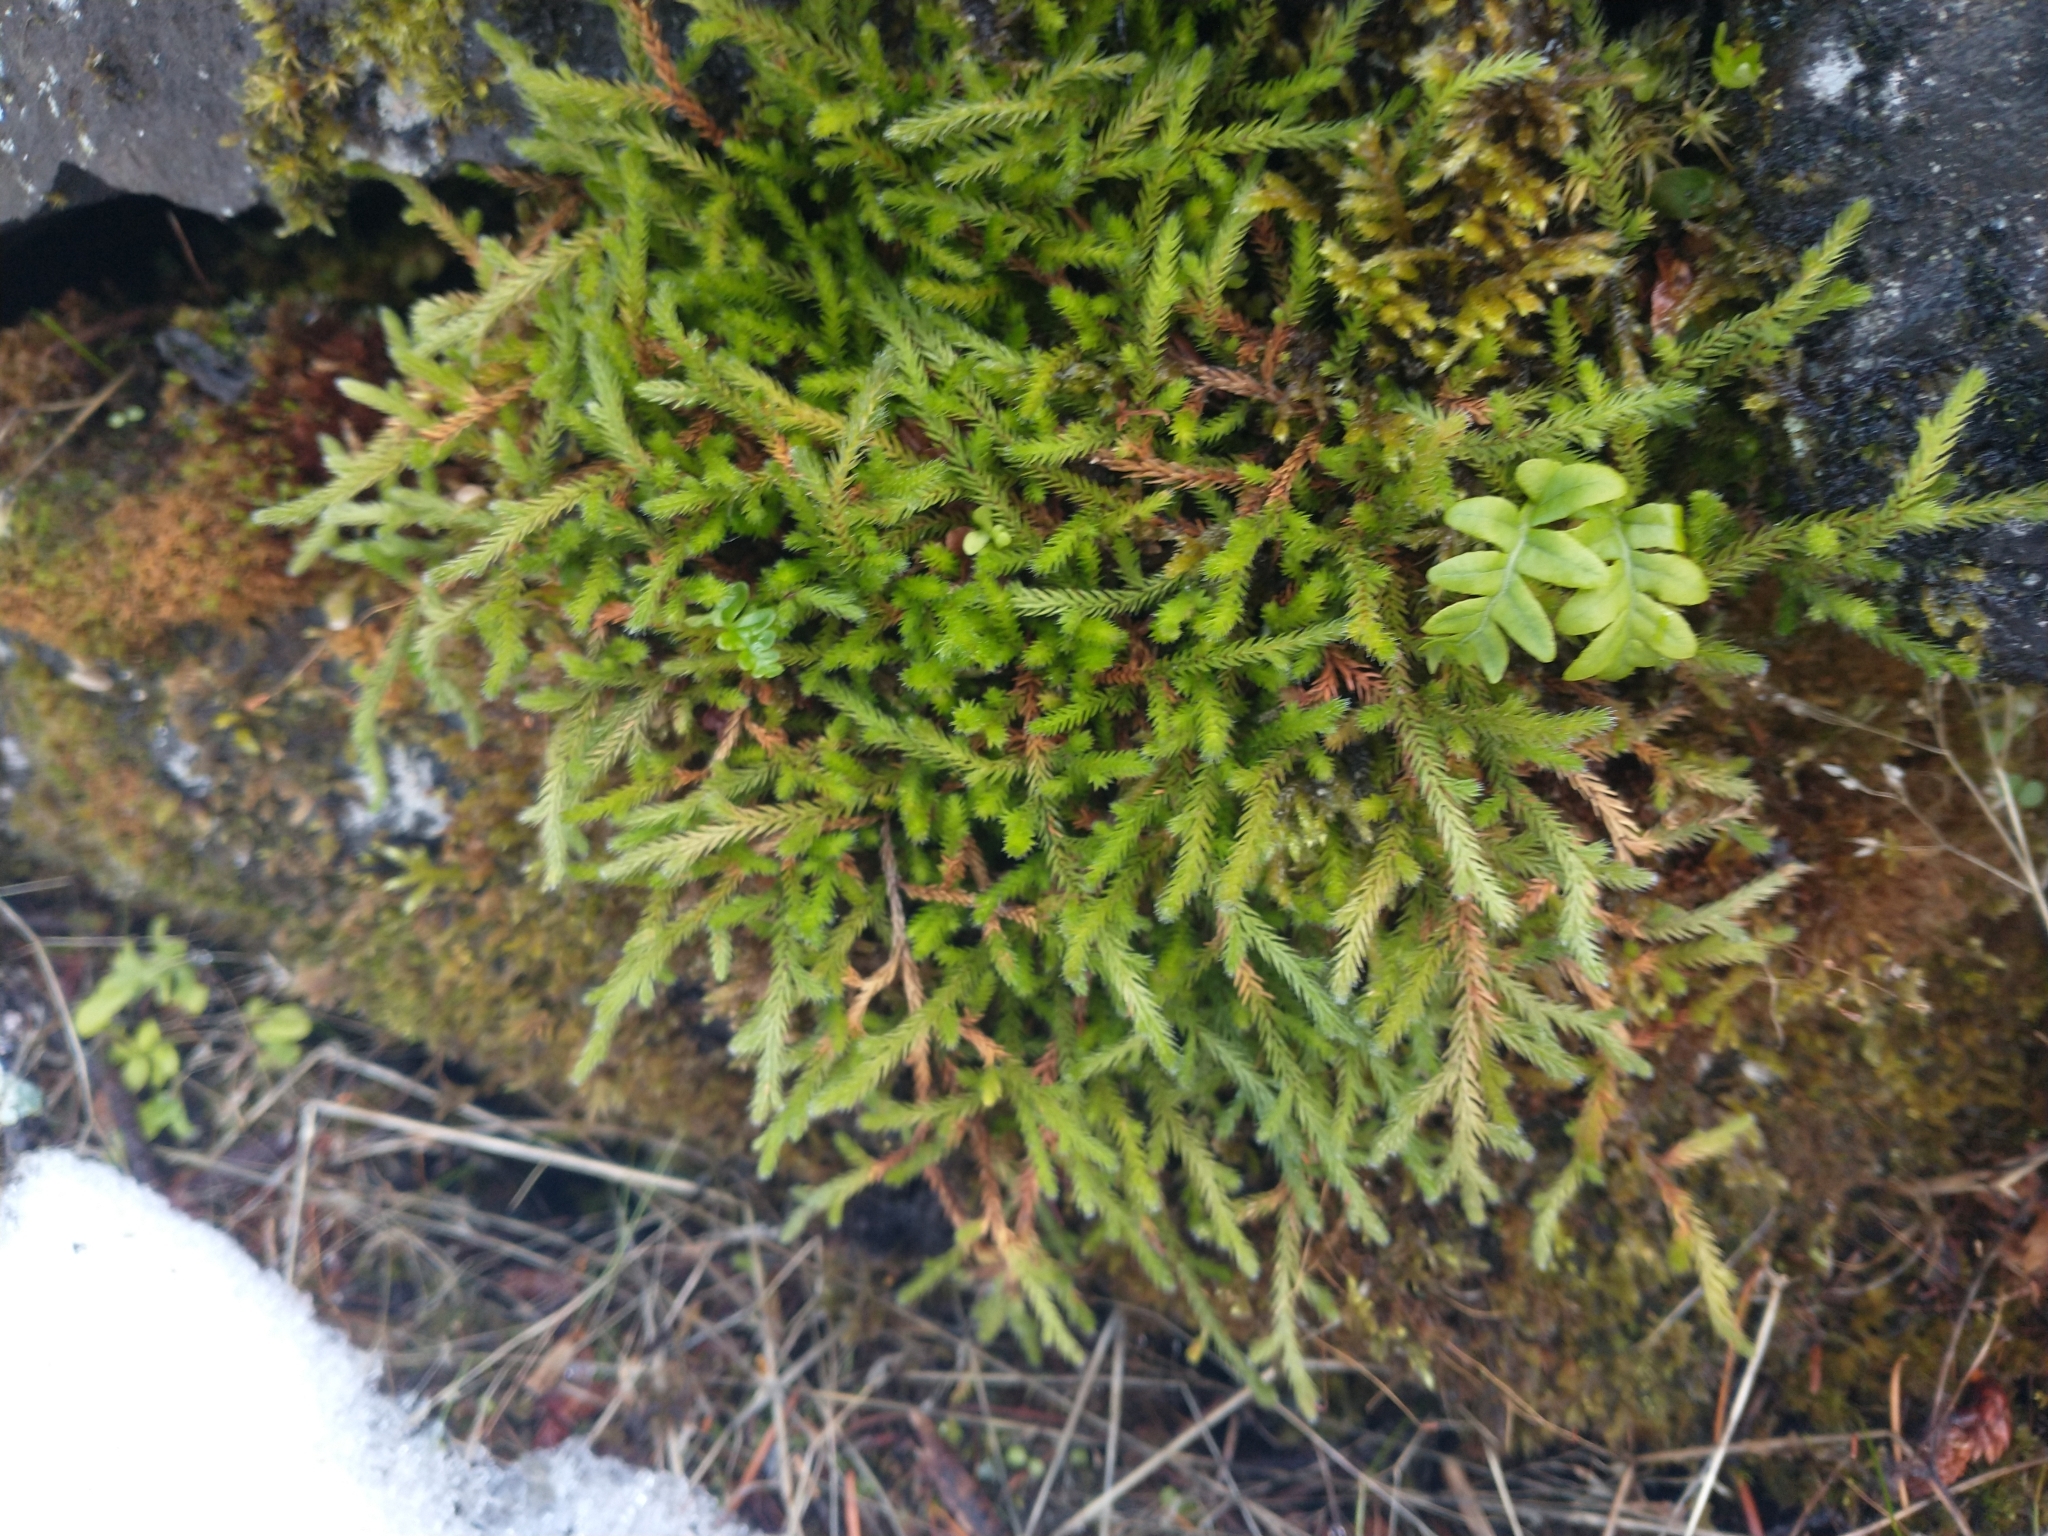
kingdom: Plantae
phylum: Tracheophyta
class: Lycopodiopsida
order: Selaginellales
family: Selaginellaceae
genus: Selaginella
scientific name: Selaginella wallacei
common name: Wallace's selaginella
